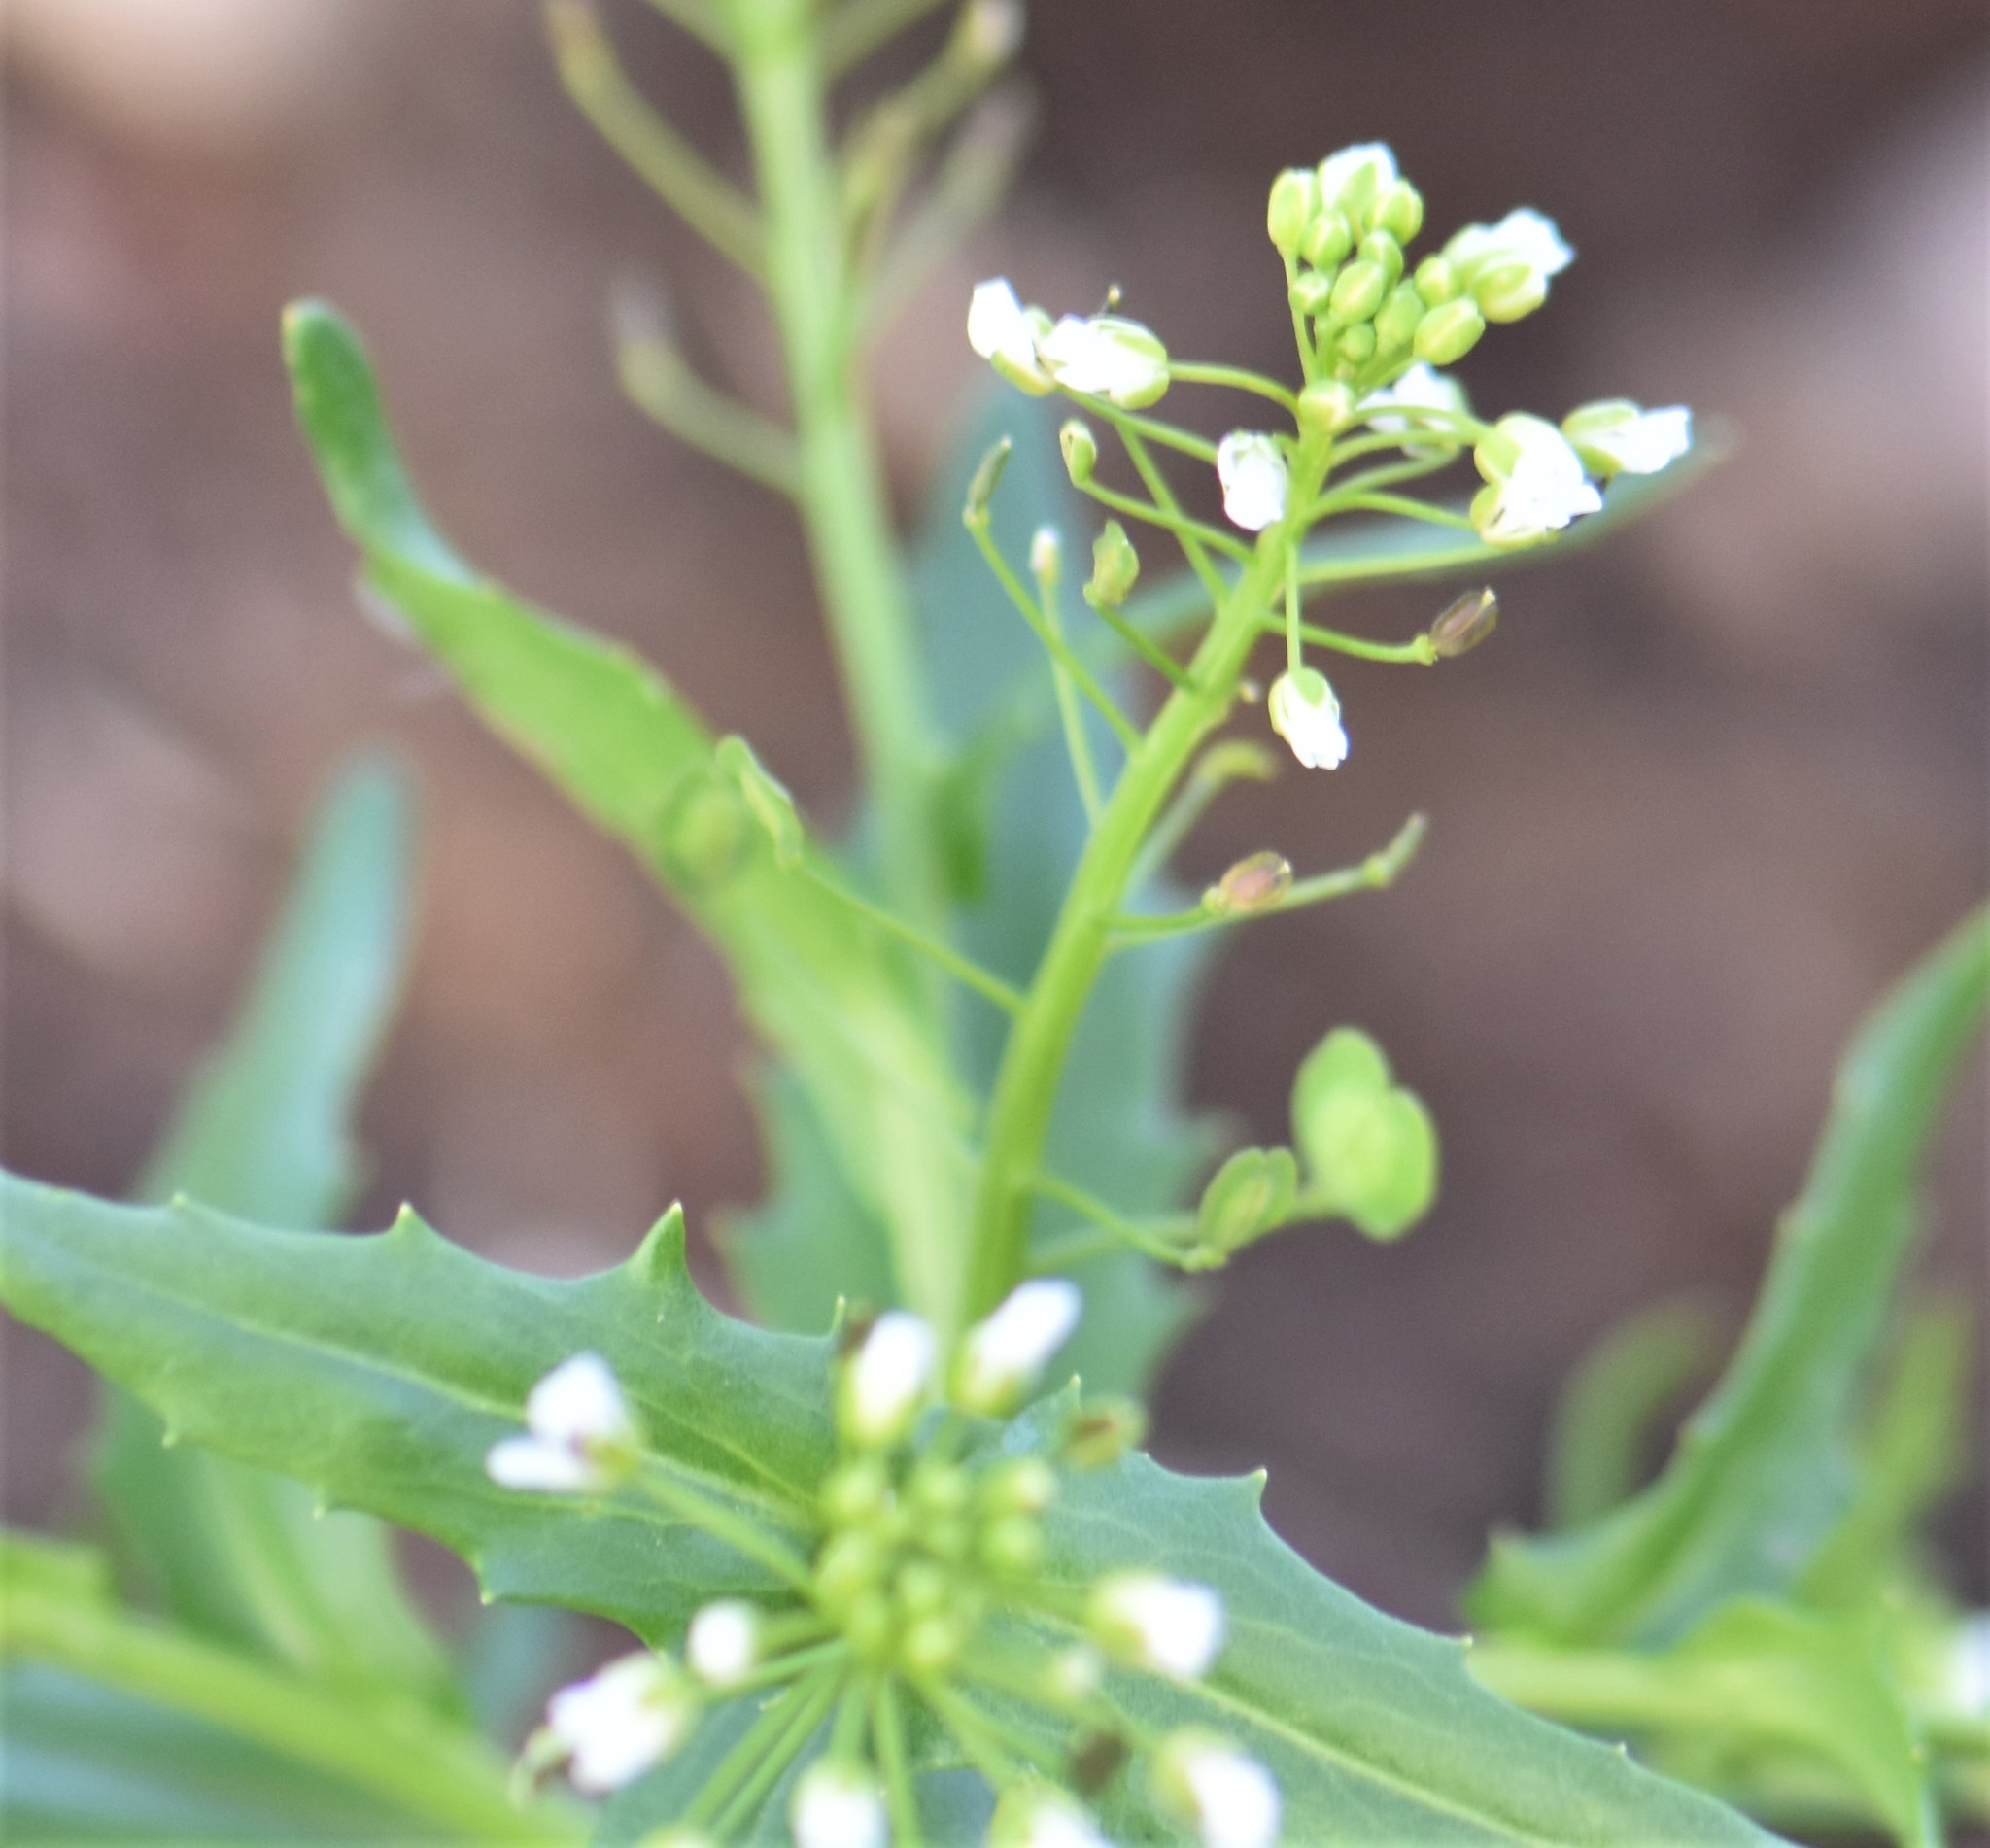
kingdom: Plantae
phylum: Tracheophyta
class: Magnoliopsida
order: Brassicales
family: Brassicaceae
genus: Thlaspi
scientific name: Thlaspi arvense
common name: Field pennycress
